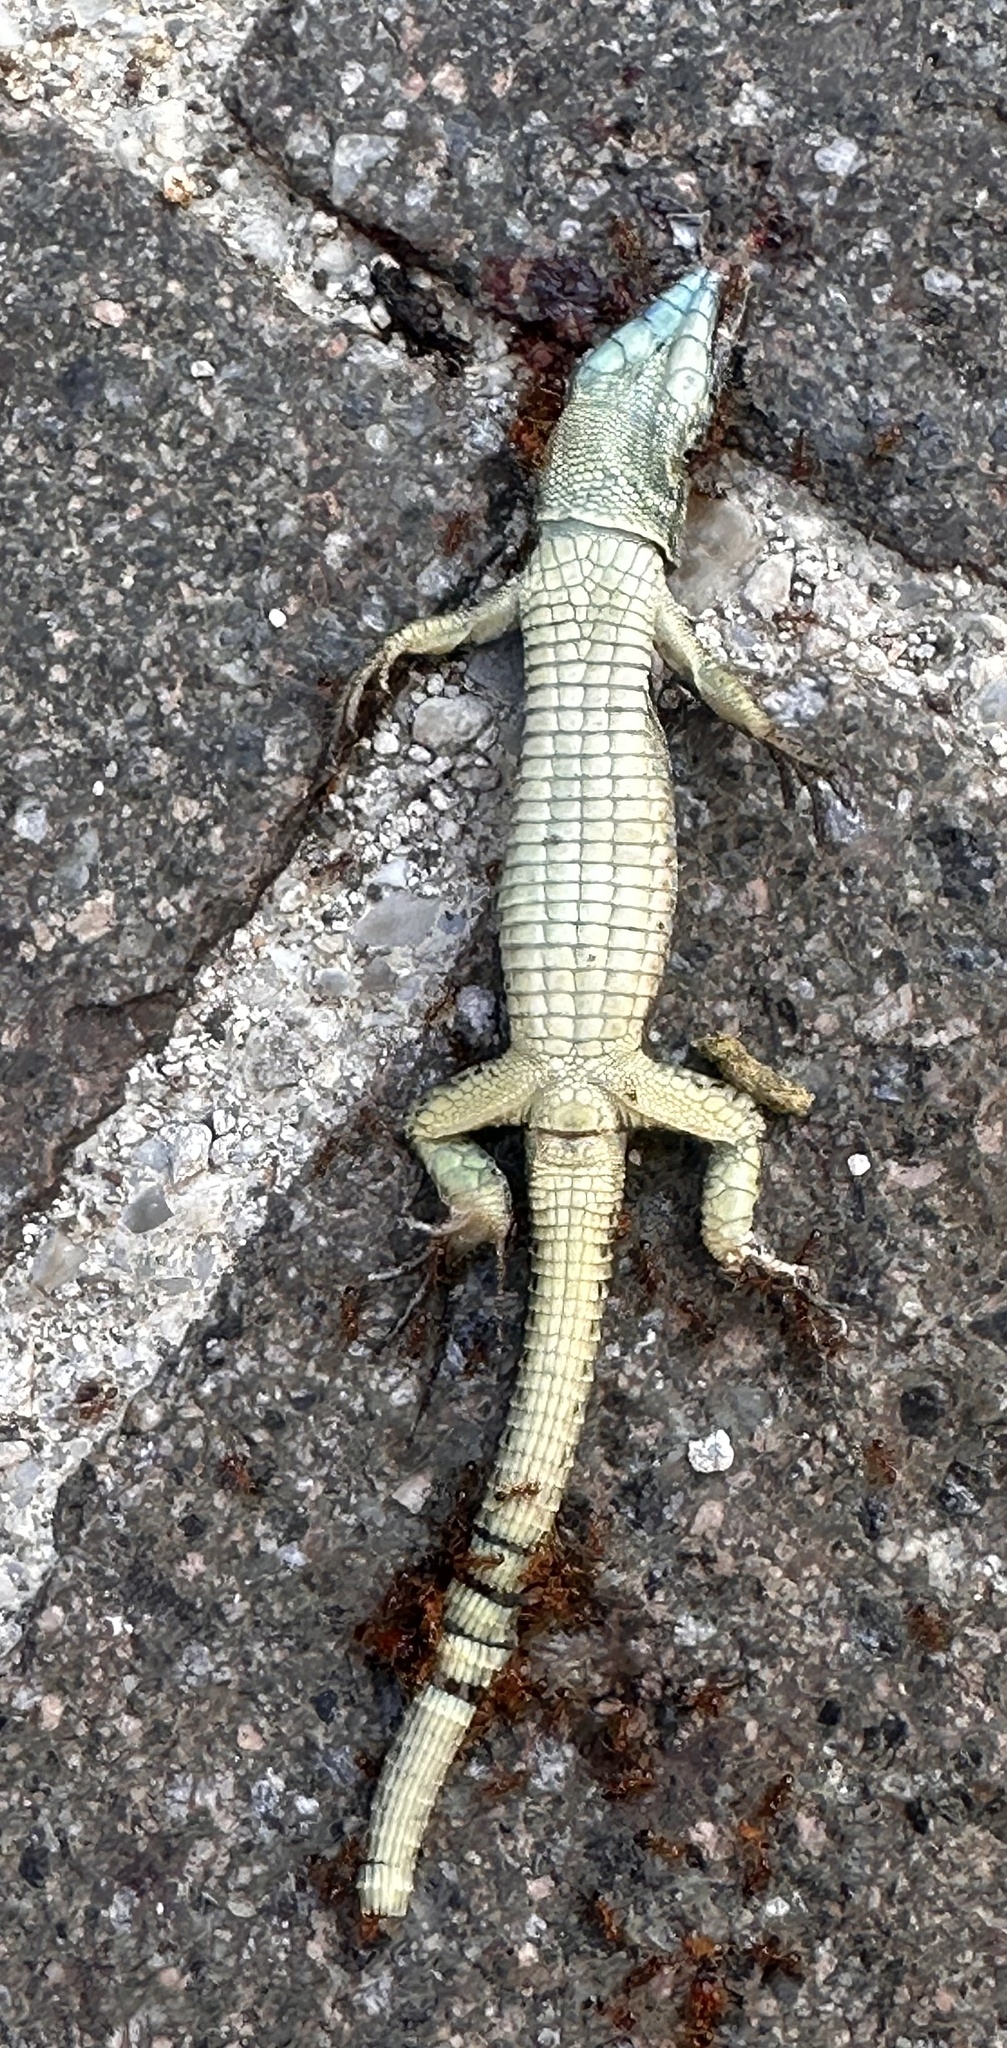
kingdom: Animalia
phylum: Chordata
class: Squamata
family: Lacertidae
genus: Podarcis
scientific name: Podarcis muralis
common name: Common wall lizard
